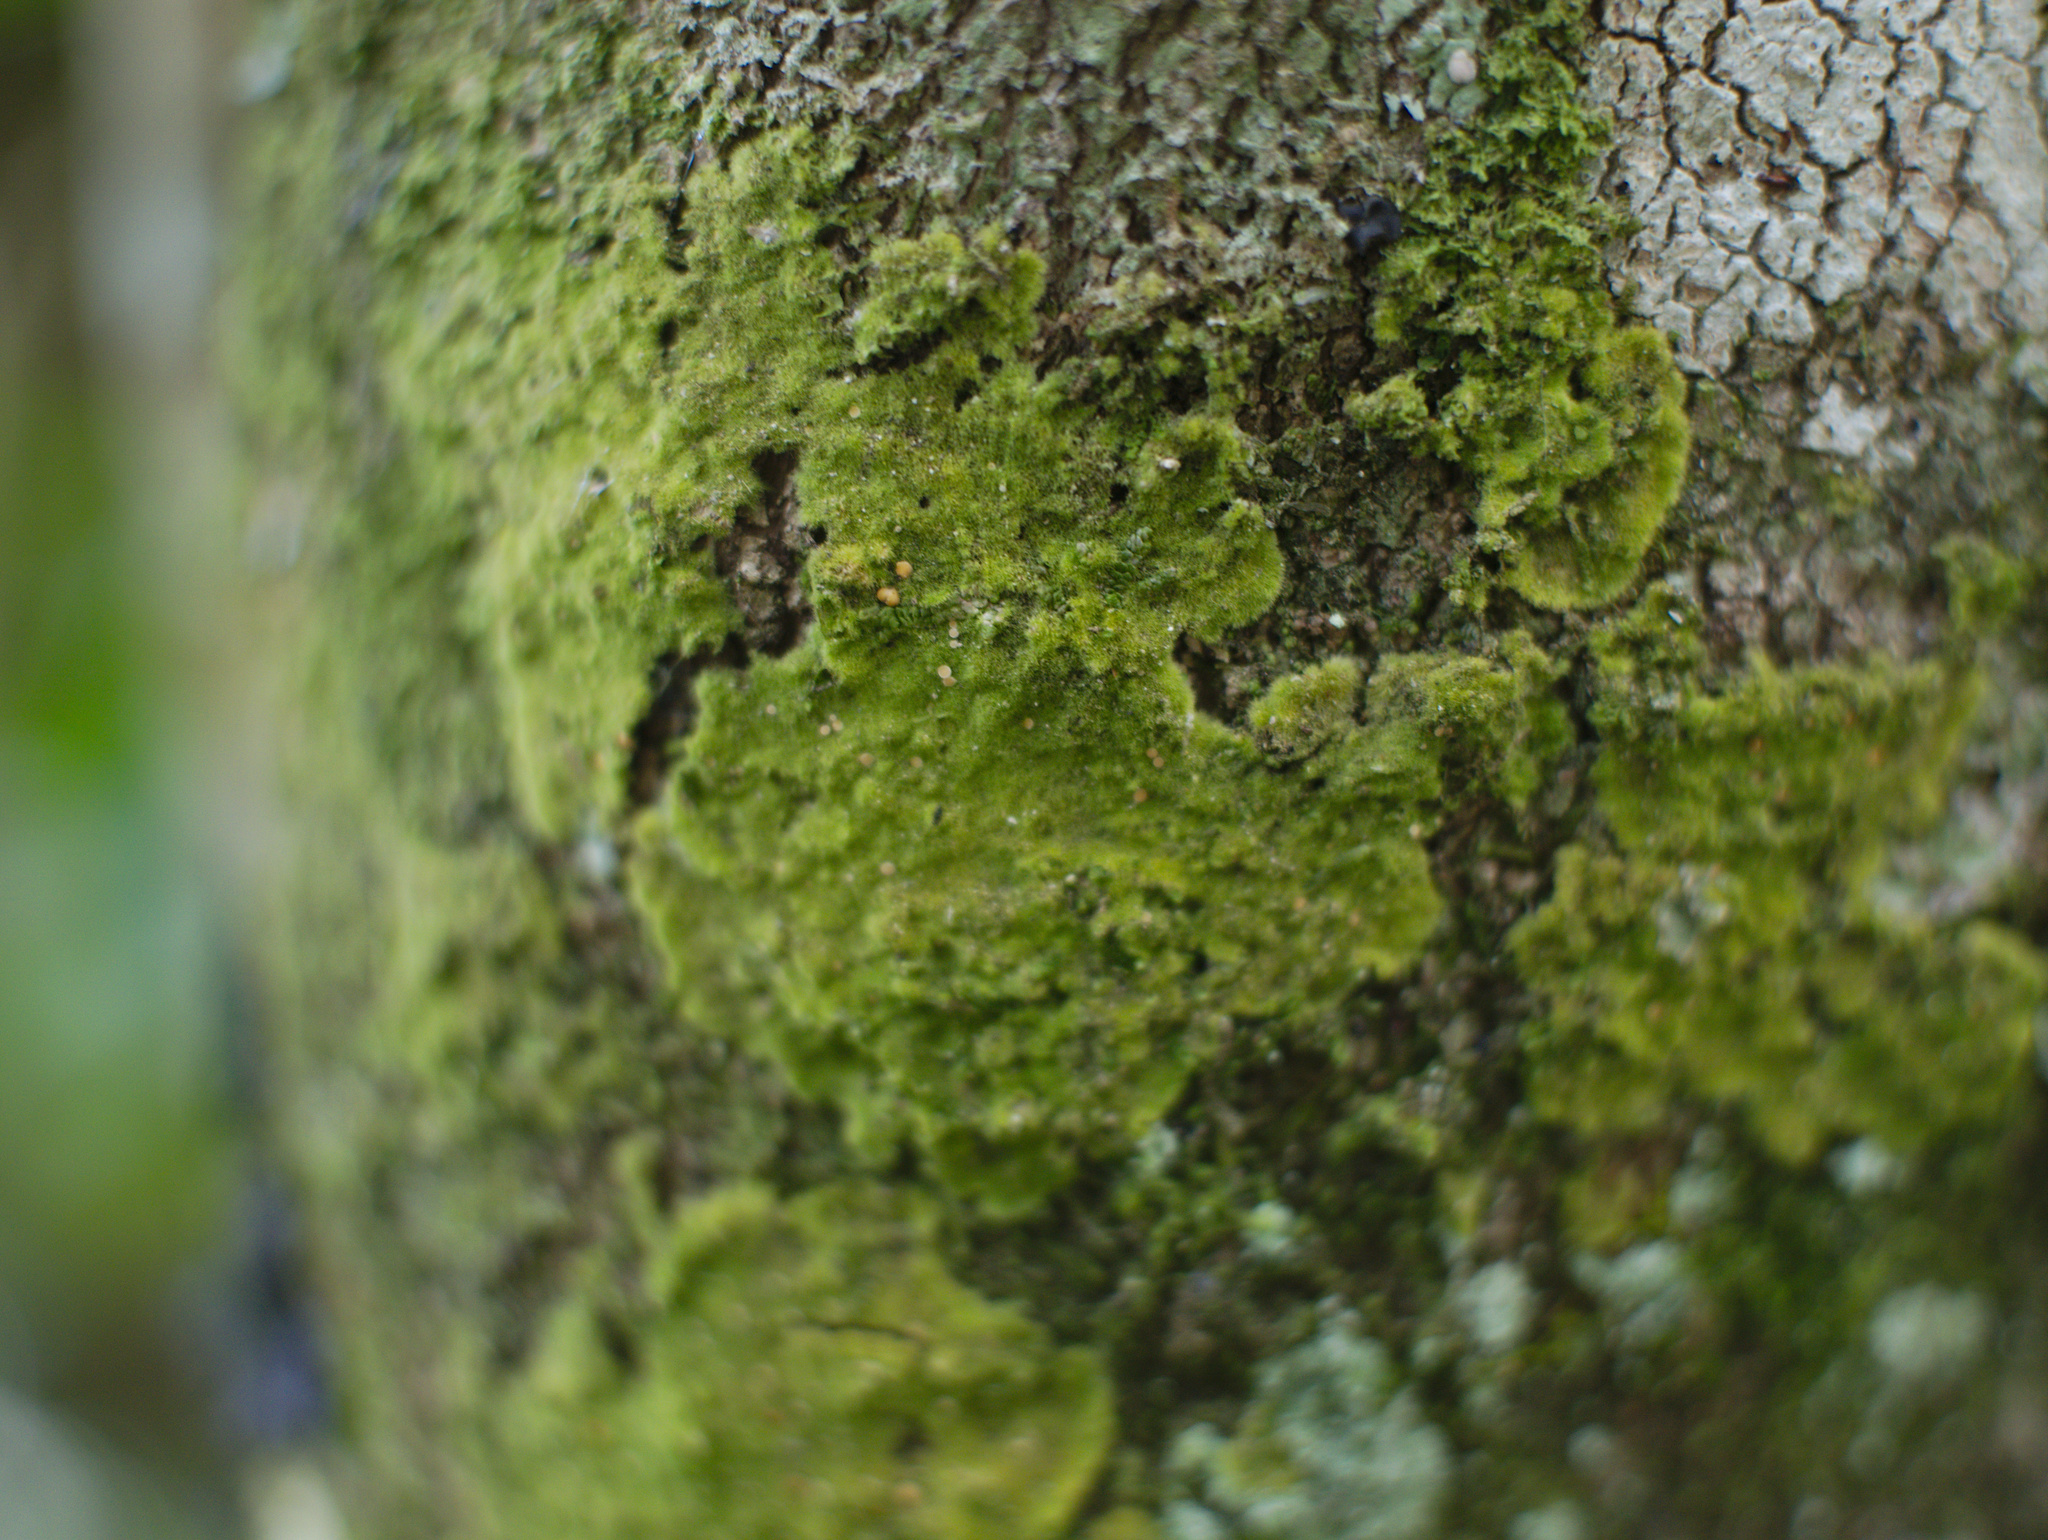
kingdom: Fungi
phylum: Ascomycota
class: Lecanoromycetes
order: Ostropales
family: Coenogoniaceae
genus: Coenogonium
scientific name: Coenogonium implexum
